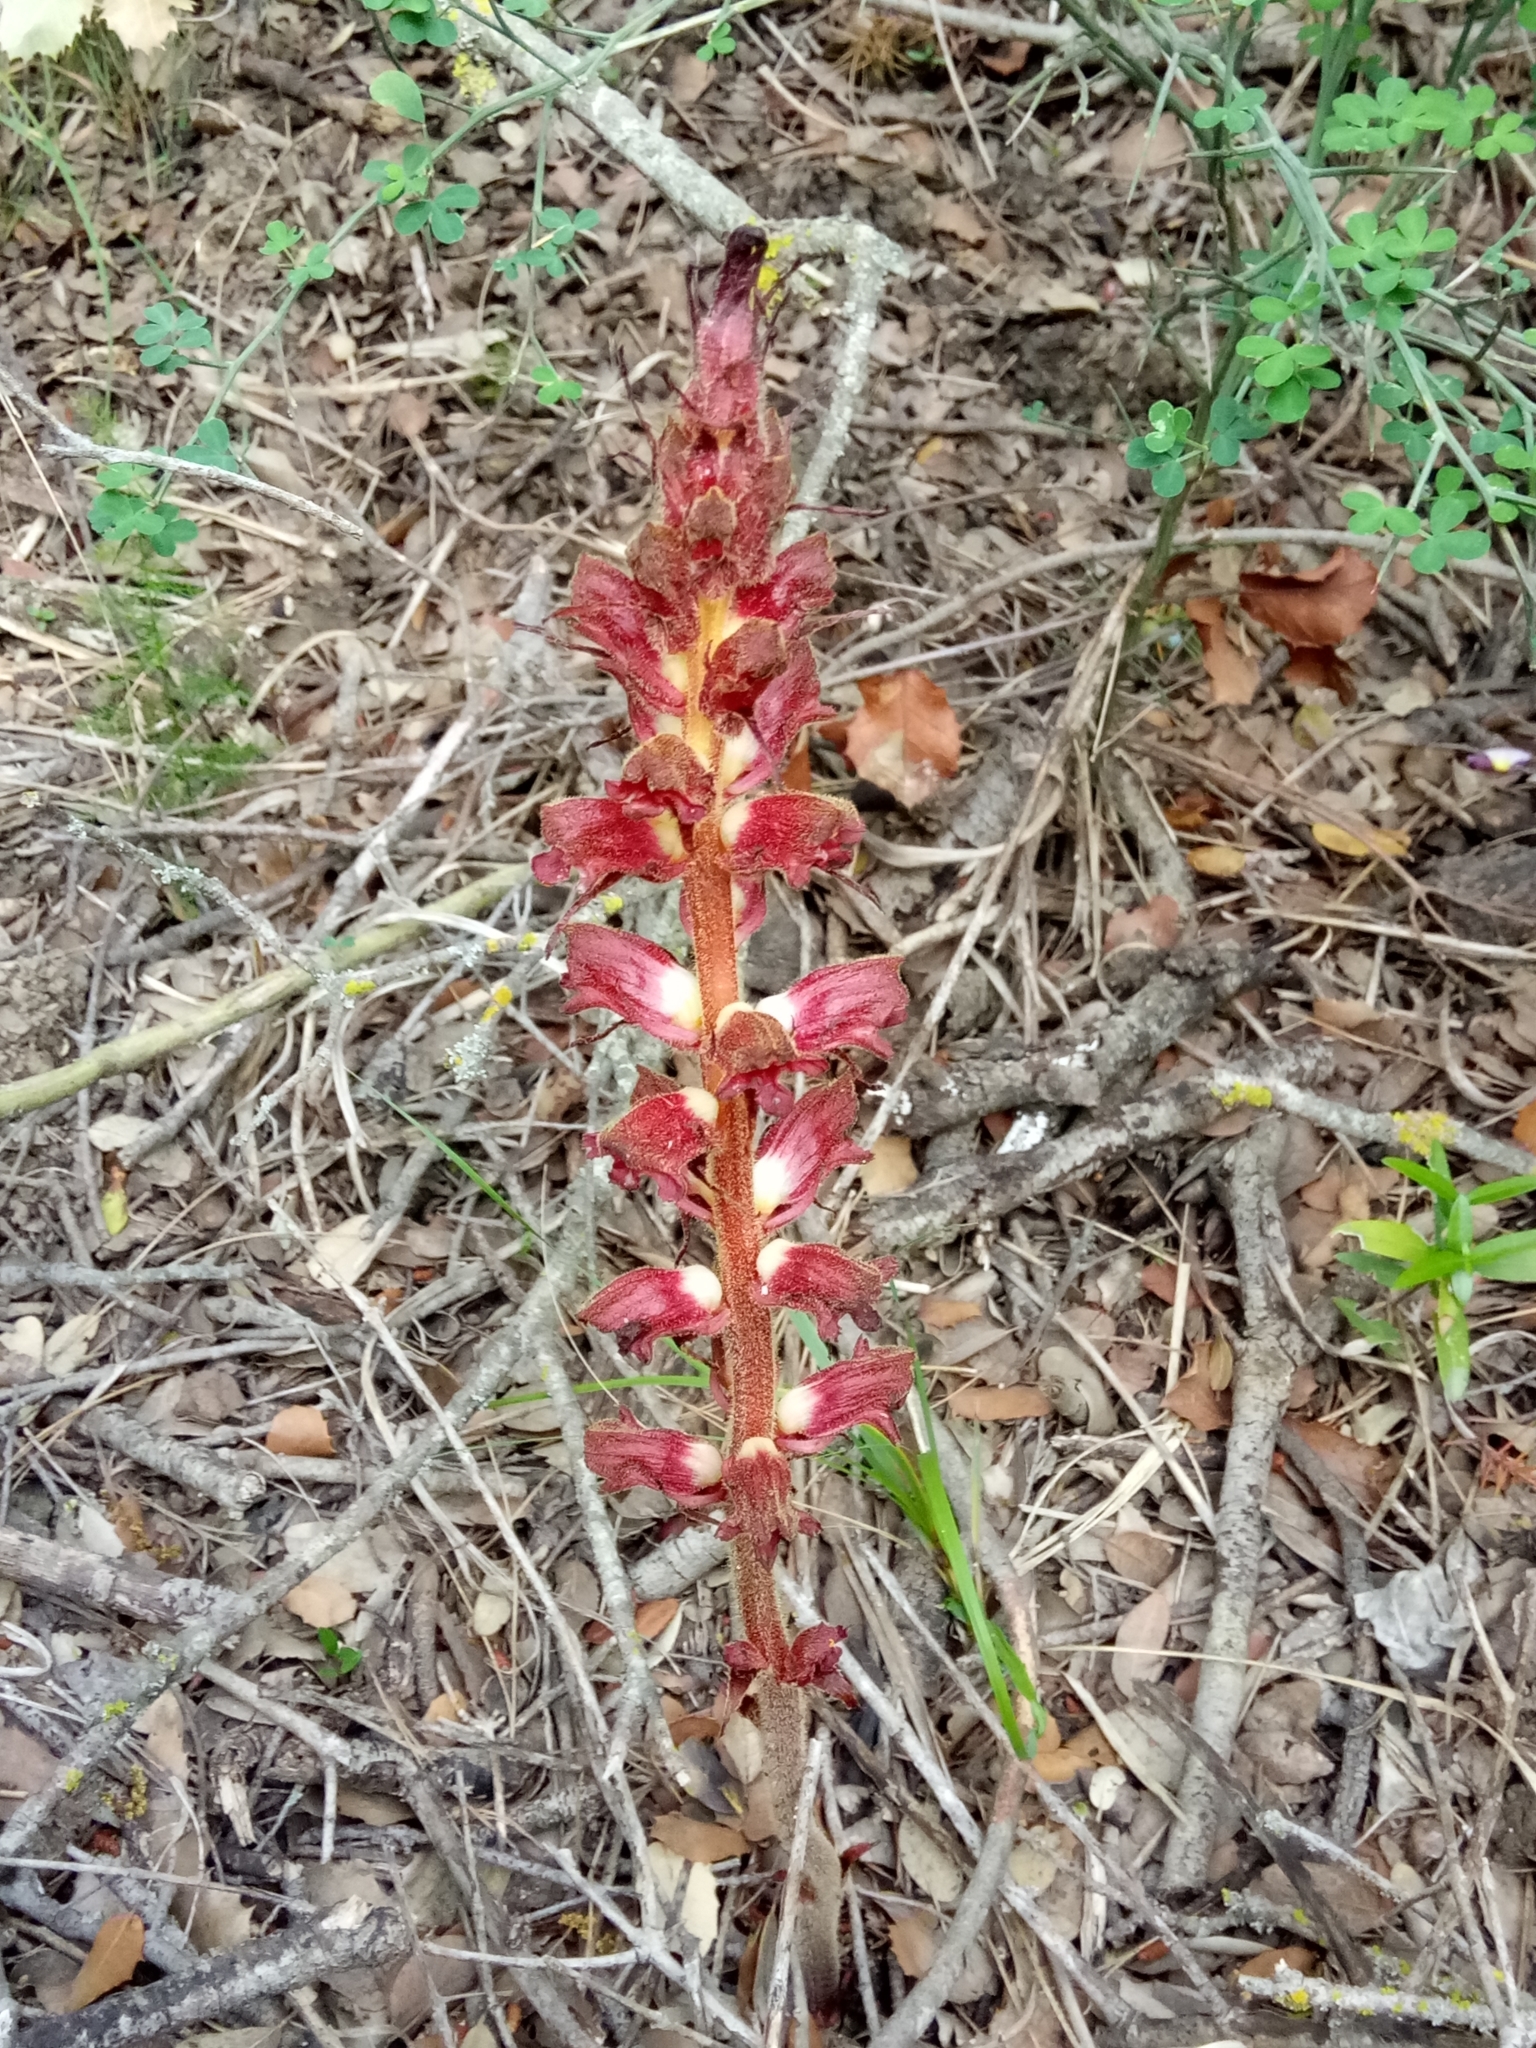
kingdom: Plantae
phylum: Tracheophyta
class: Magnoliopsida
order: Lamiales
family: Orobanchaceae
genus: Orobanche
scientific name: Orobanche variegata
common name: Variegated broomrape
